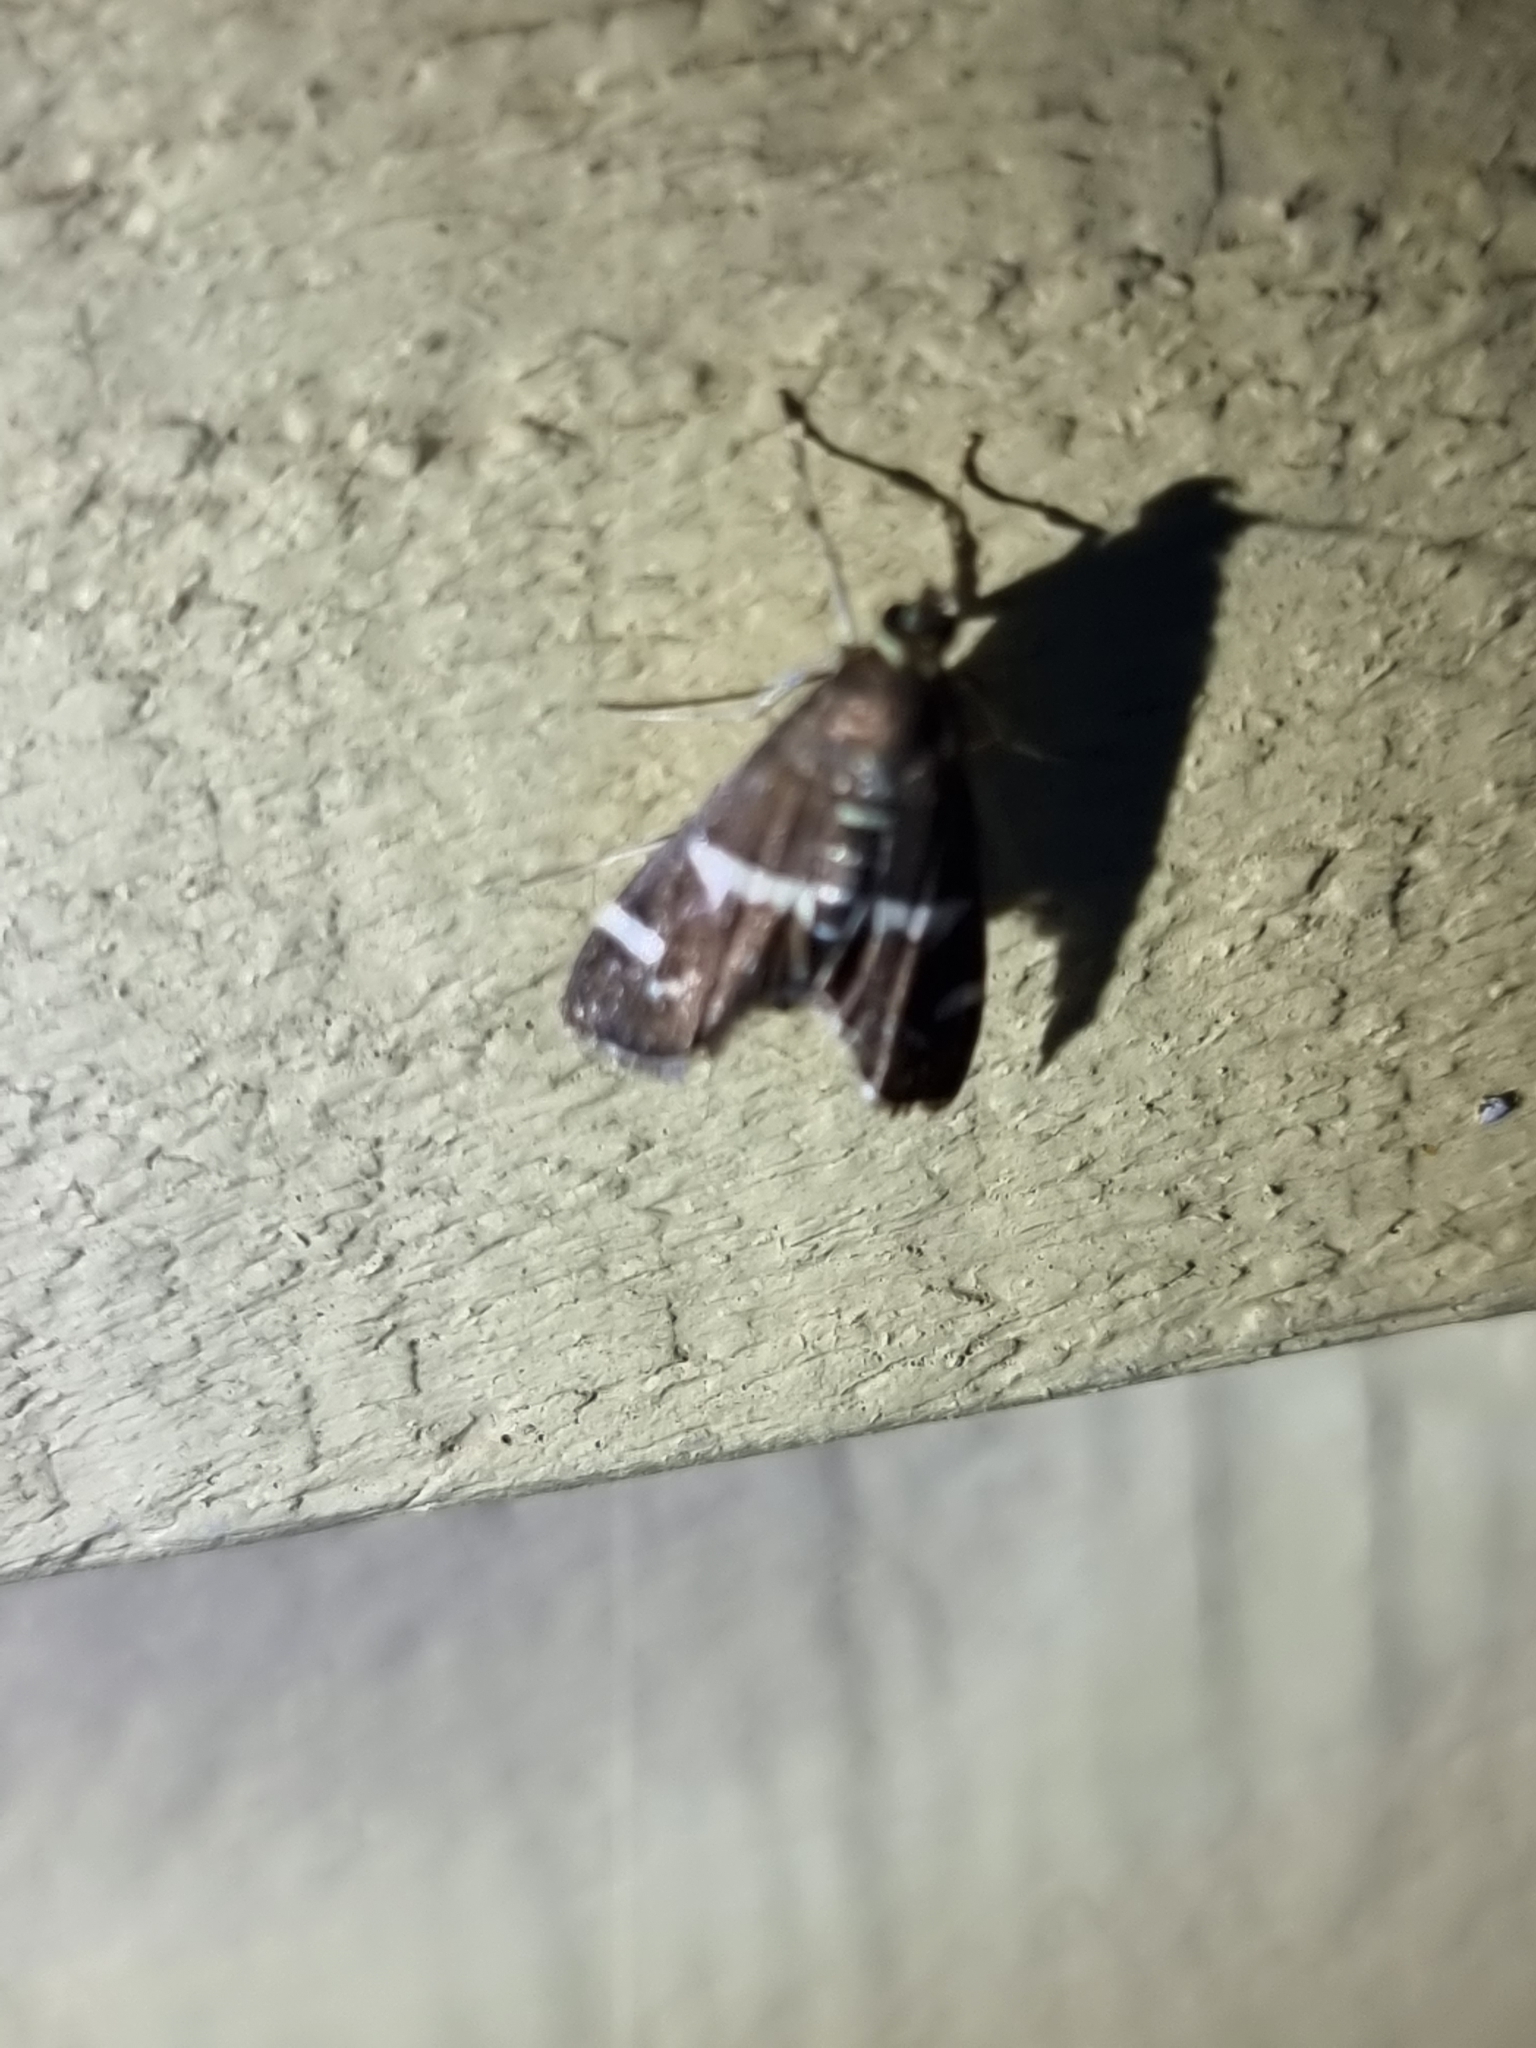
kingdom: Animalia
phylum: Arthropoda
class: Insecta
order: Lepidoptera
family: Crambidae
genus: Spoladea
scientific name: Spoladea recurvalis
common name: Beet webworm moth
